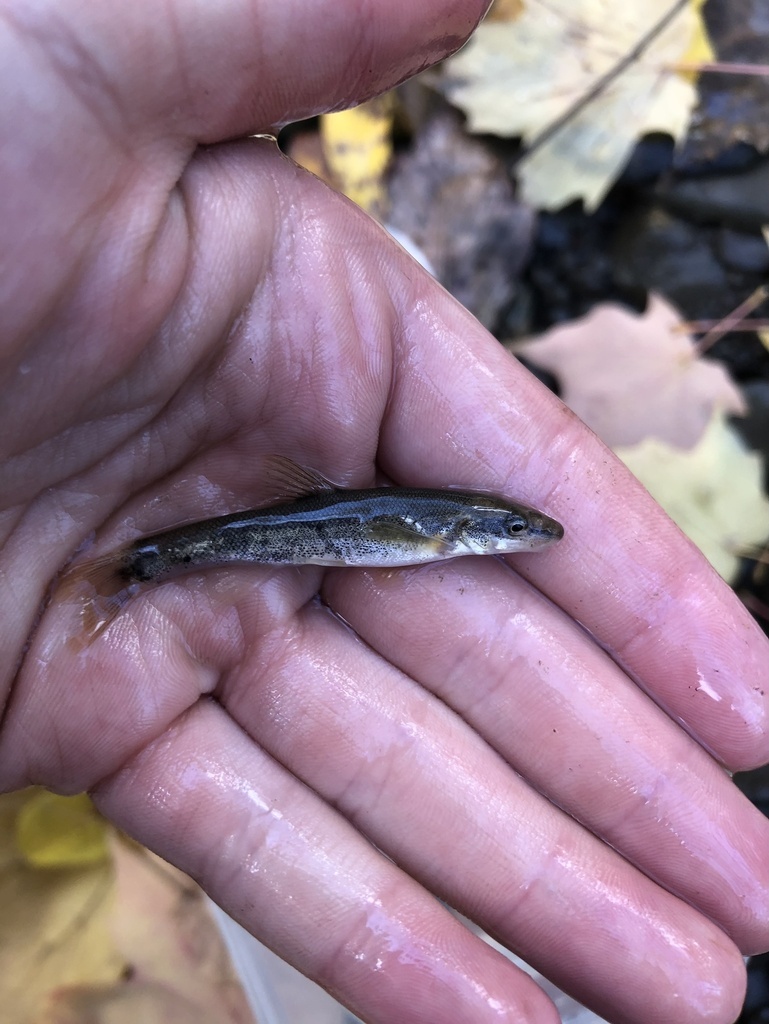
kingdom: Animalia
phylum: Platyhelminthes
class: Trematoda
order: Diplostomida
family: Diplostomidae
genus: Neascus
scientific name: Neascus
